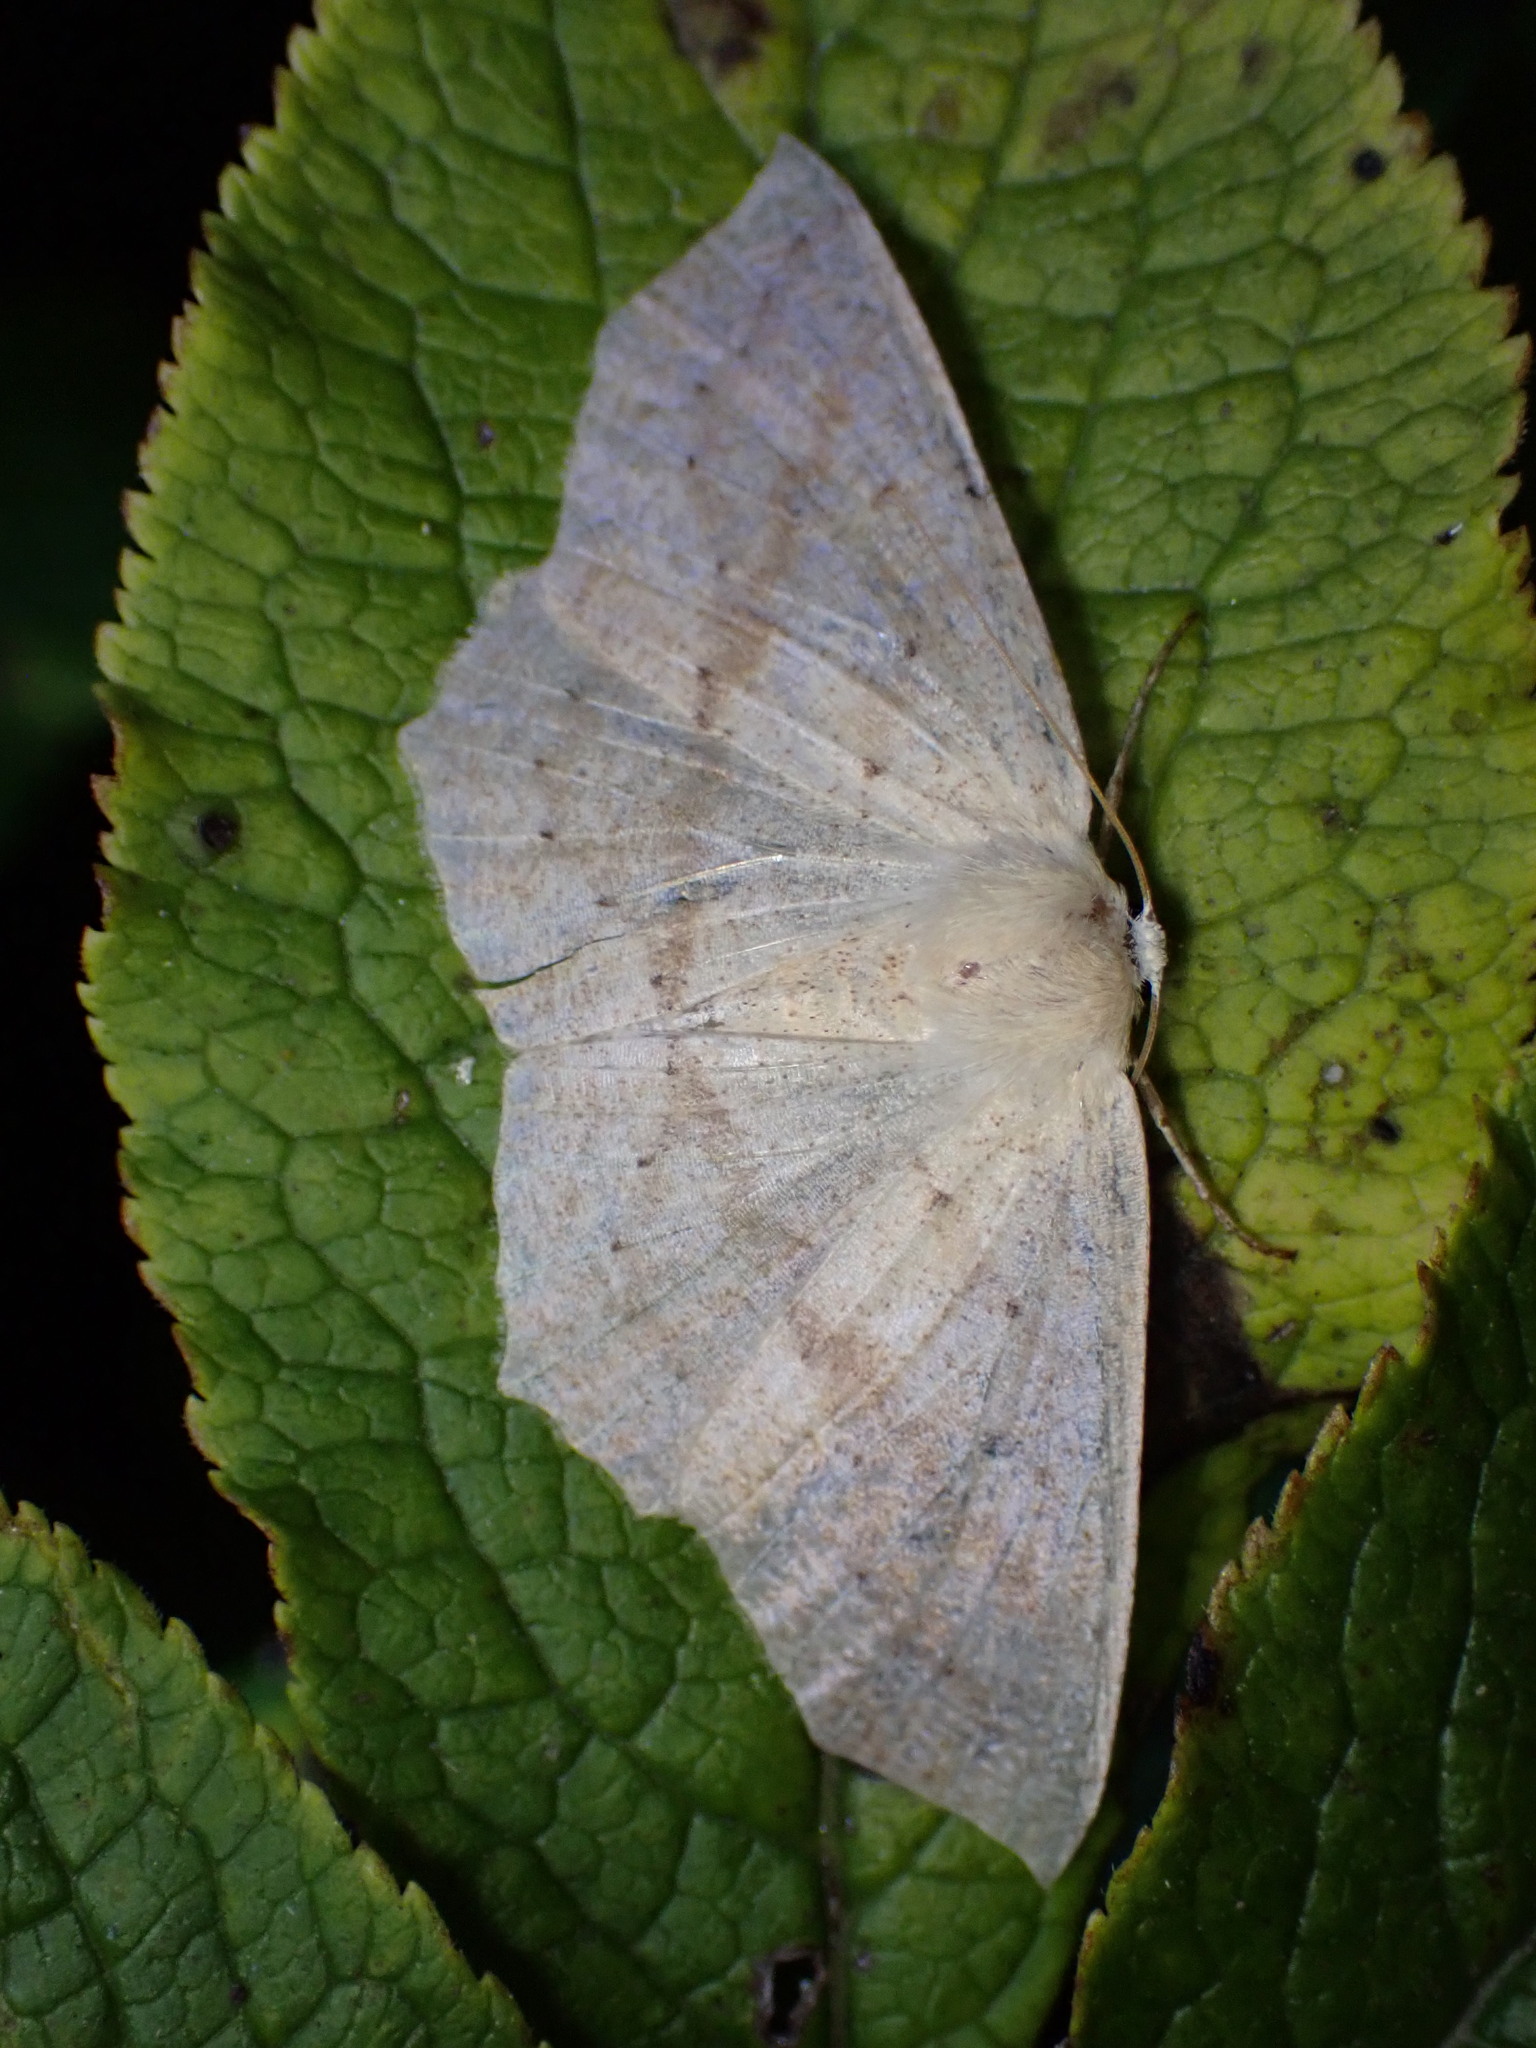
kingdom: Animalia
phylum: Arthropoda
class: Insecta
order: Lepidoptera
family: Geometridae
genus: Sabulodes
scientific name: Sabulodes aegrotata
